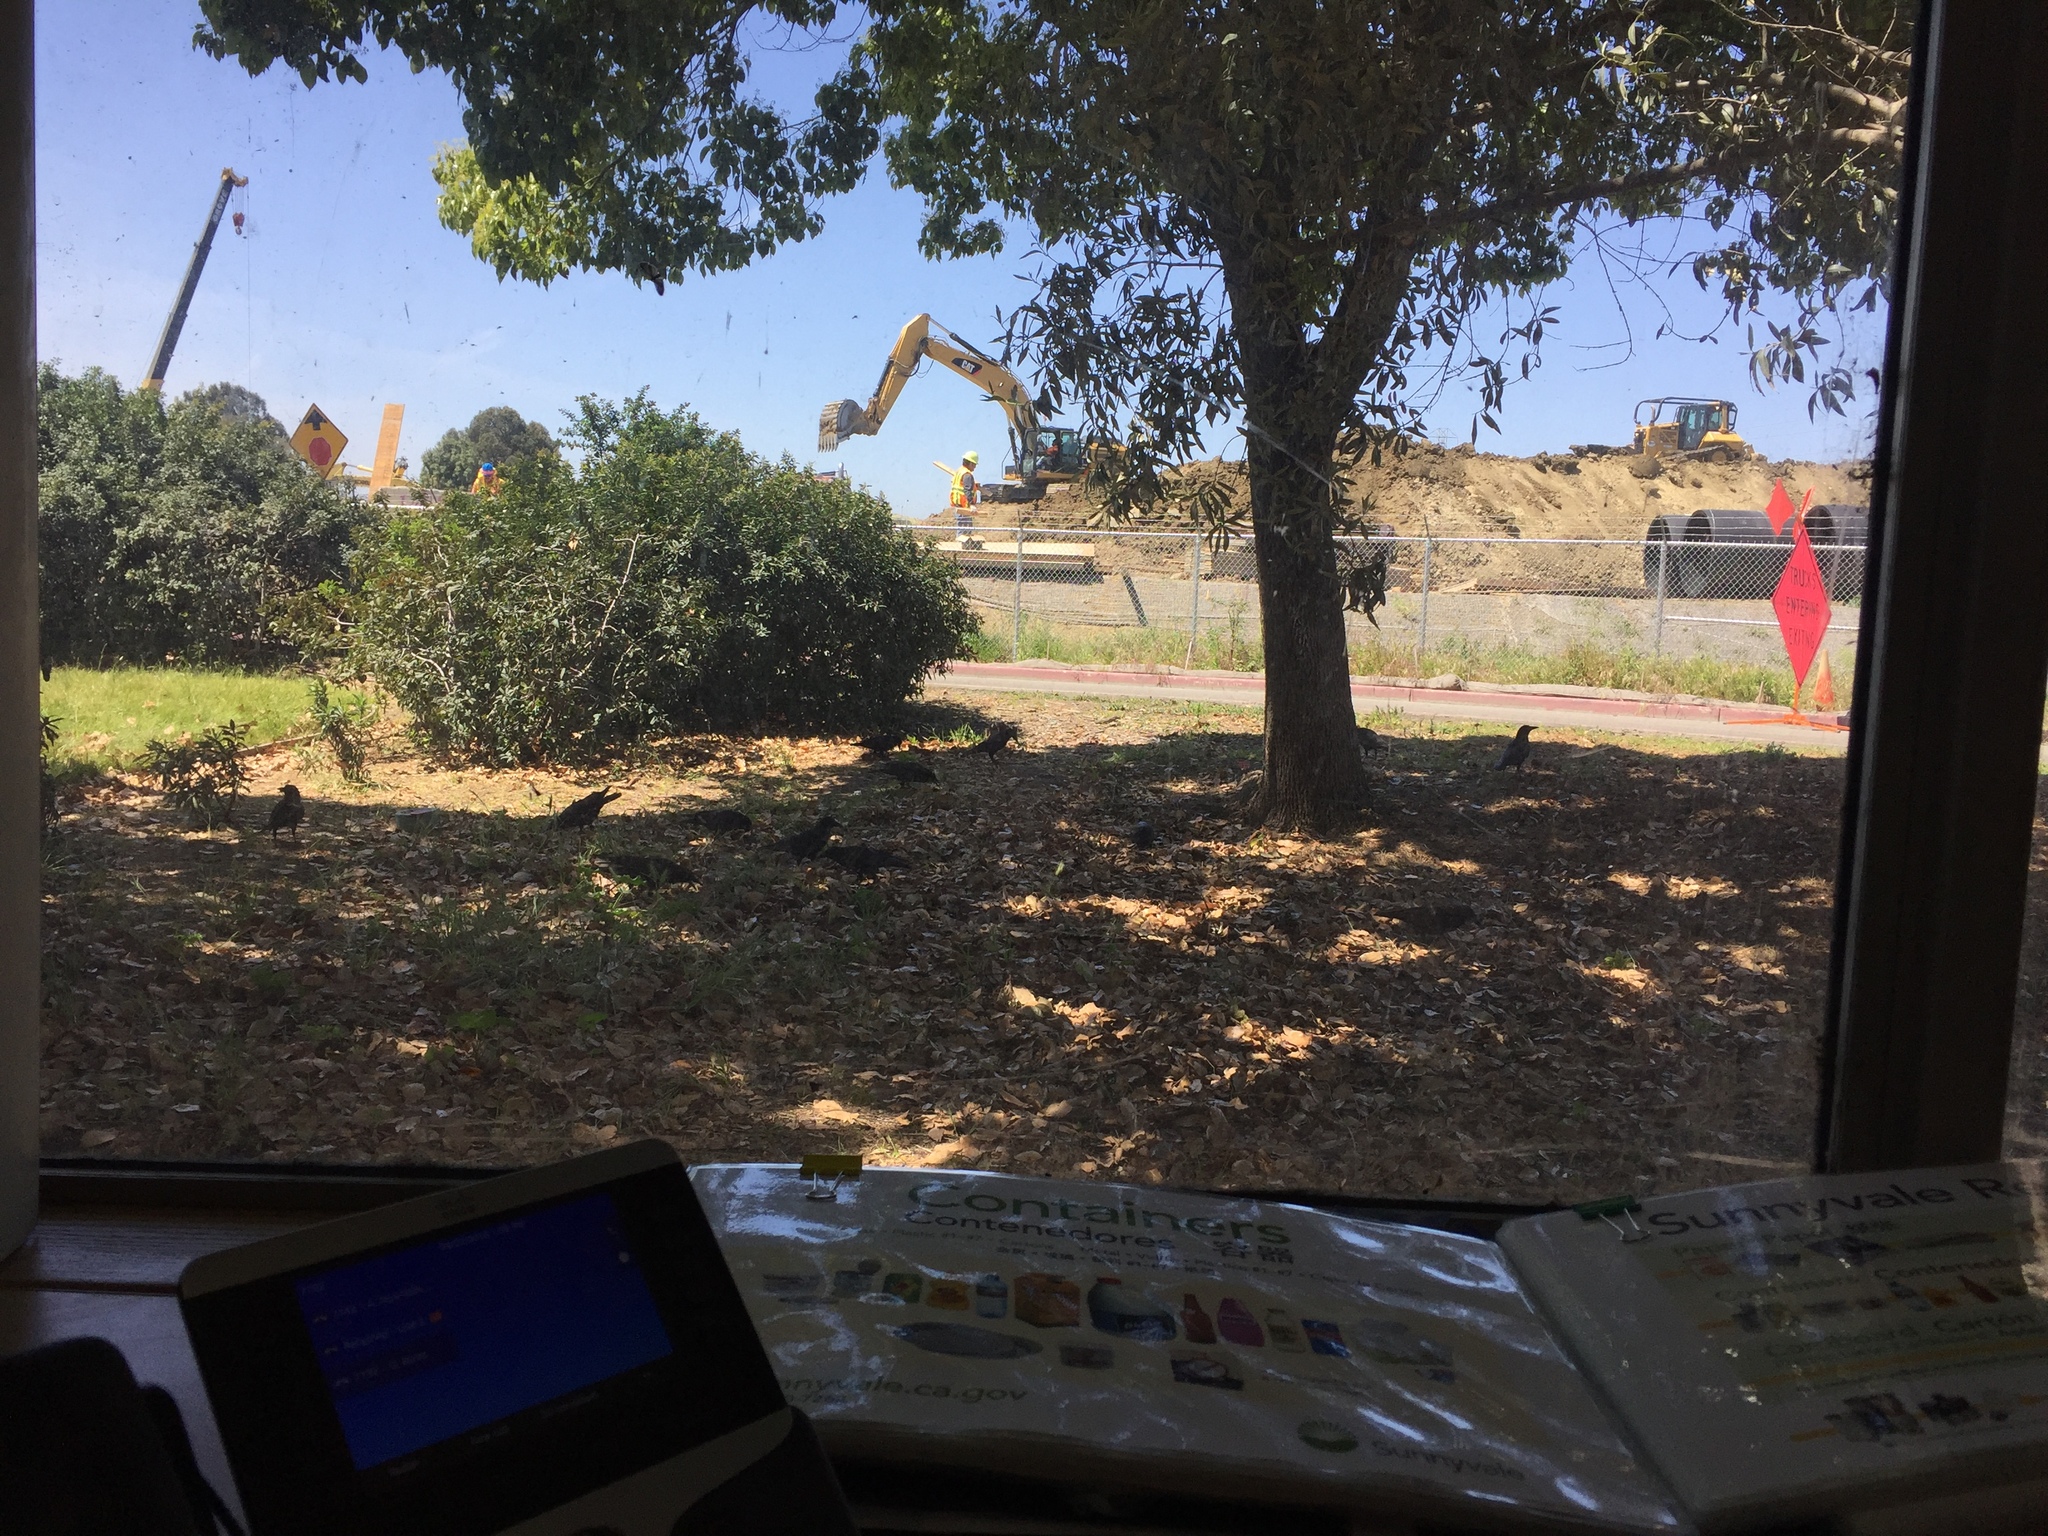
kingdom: Animalia
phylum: Chordata
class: Aves
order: Passeriformes
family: Corvidae
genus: Corvus
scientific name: Corvus brachyrhynchos
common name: American crow
